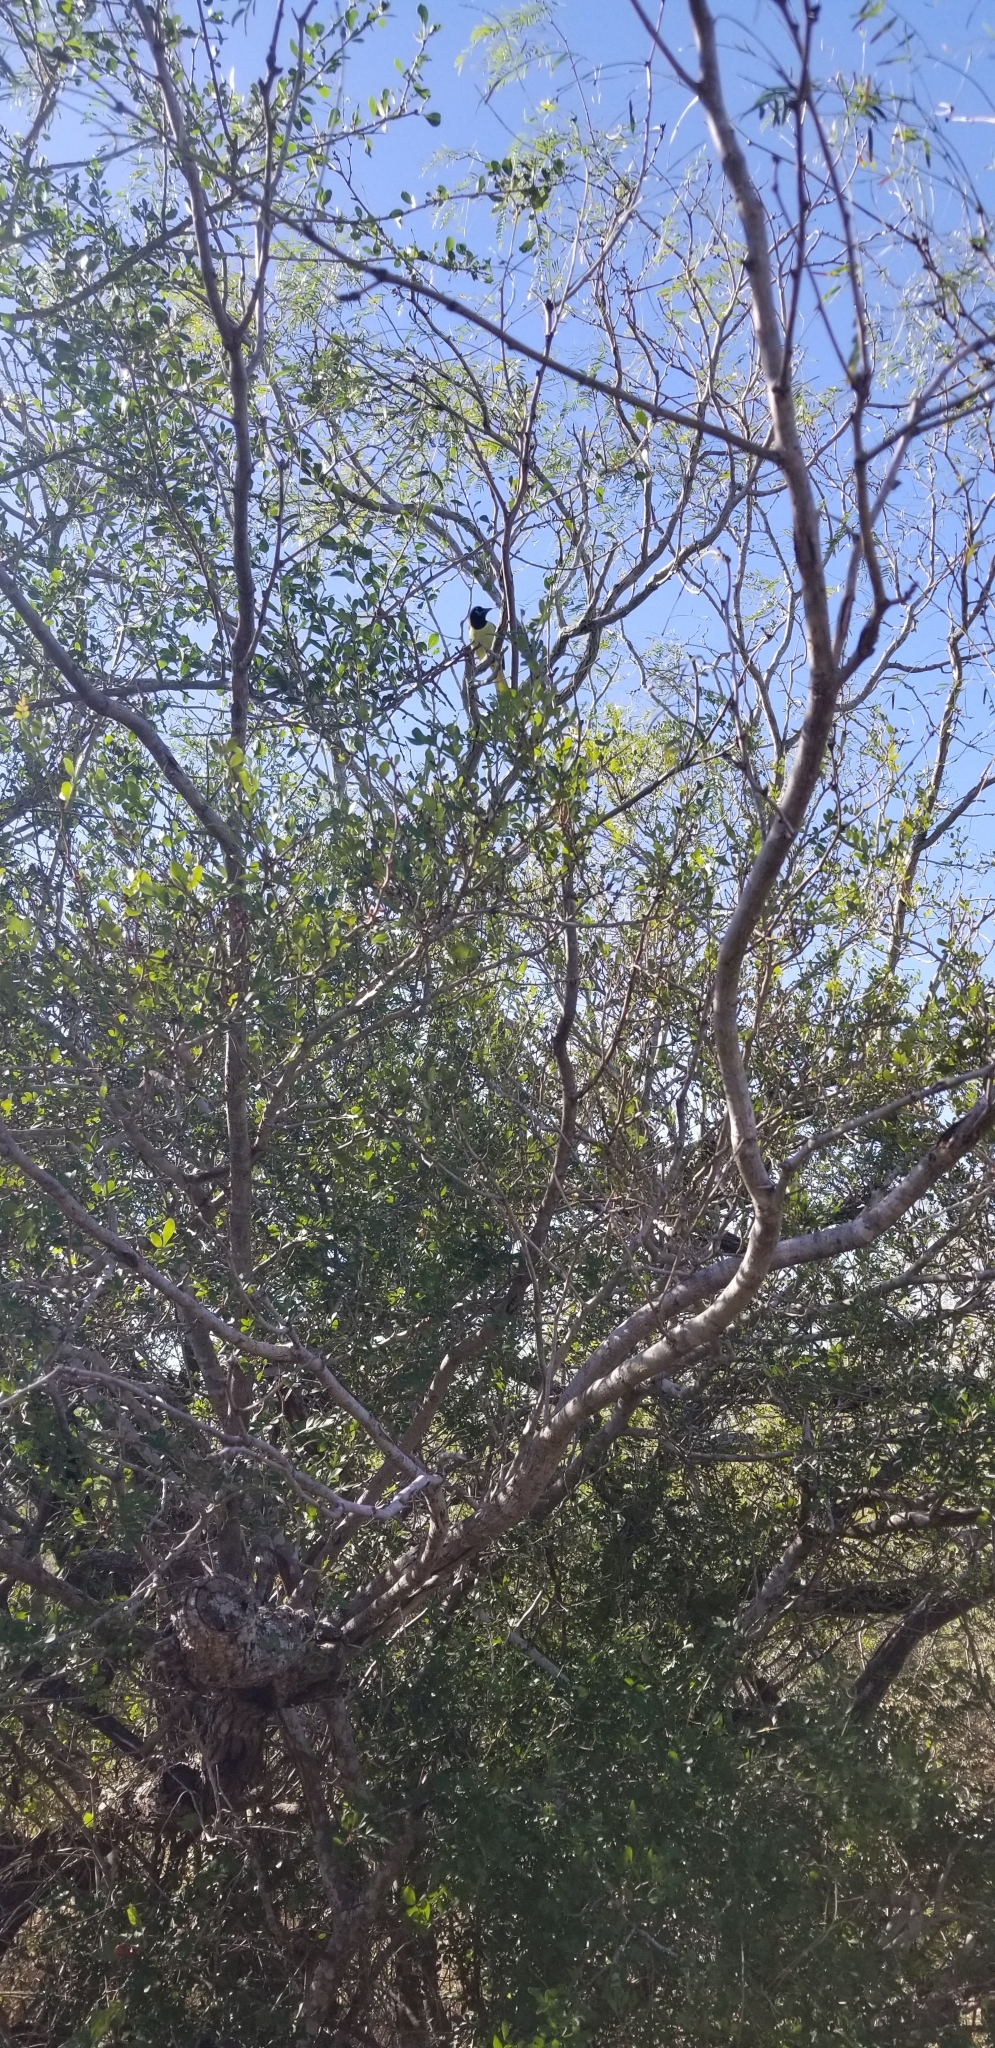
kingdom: Animalia
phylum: Chordata
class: Aves
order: Passeriformes
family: Corvidae
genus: Cyanocorax
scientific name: Cyanocorax yncas
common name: Green jay
